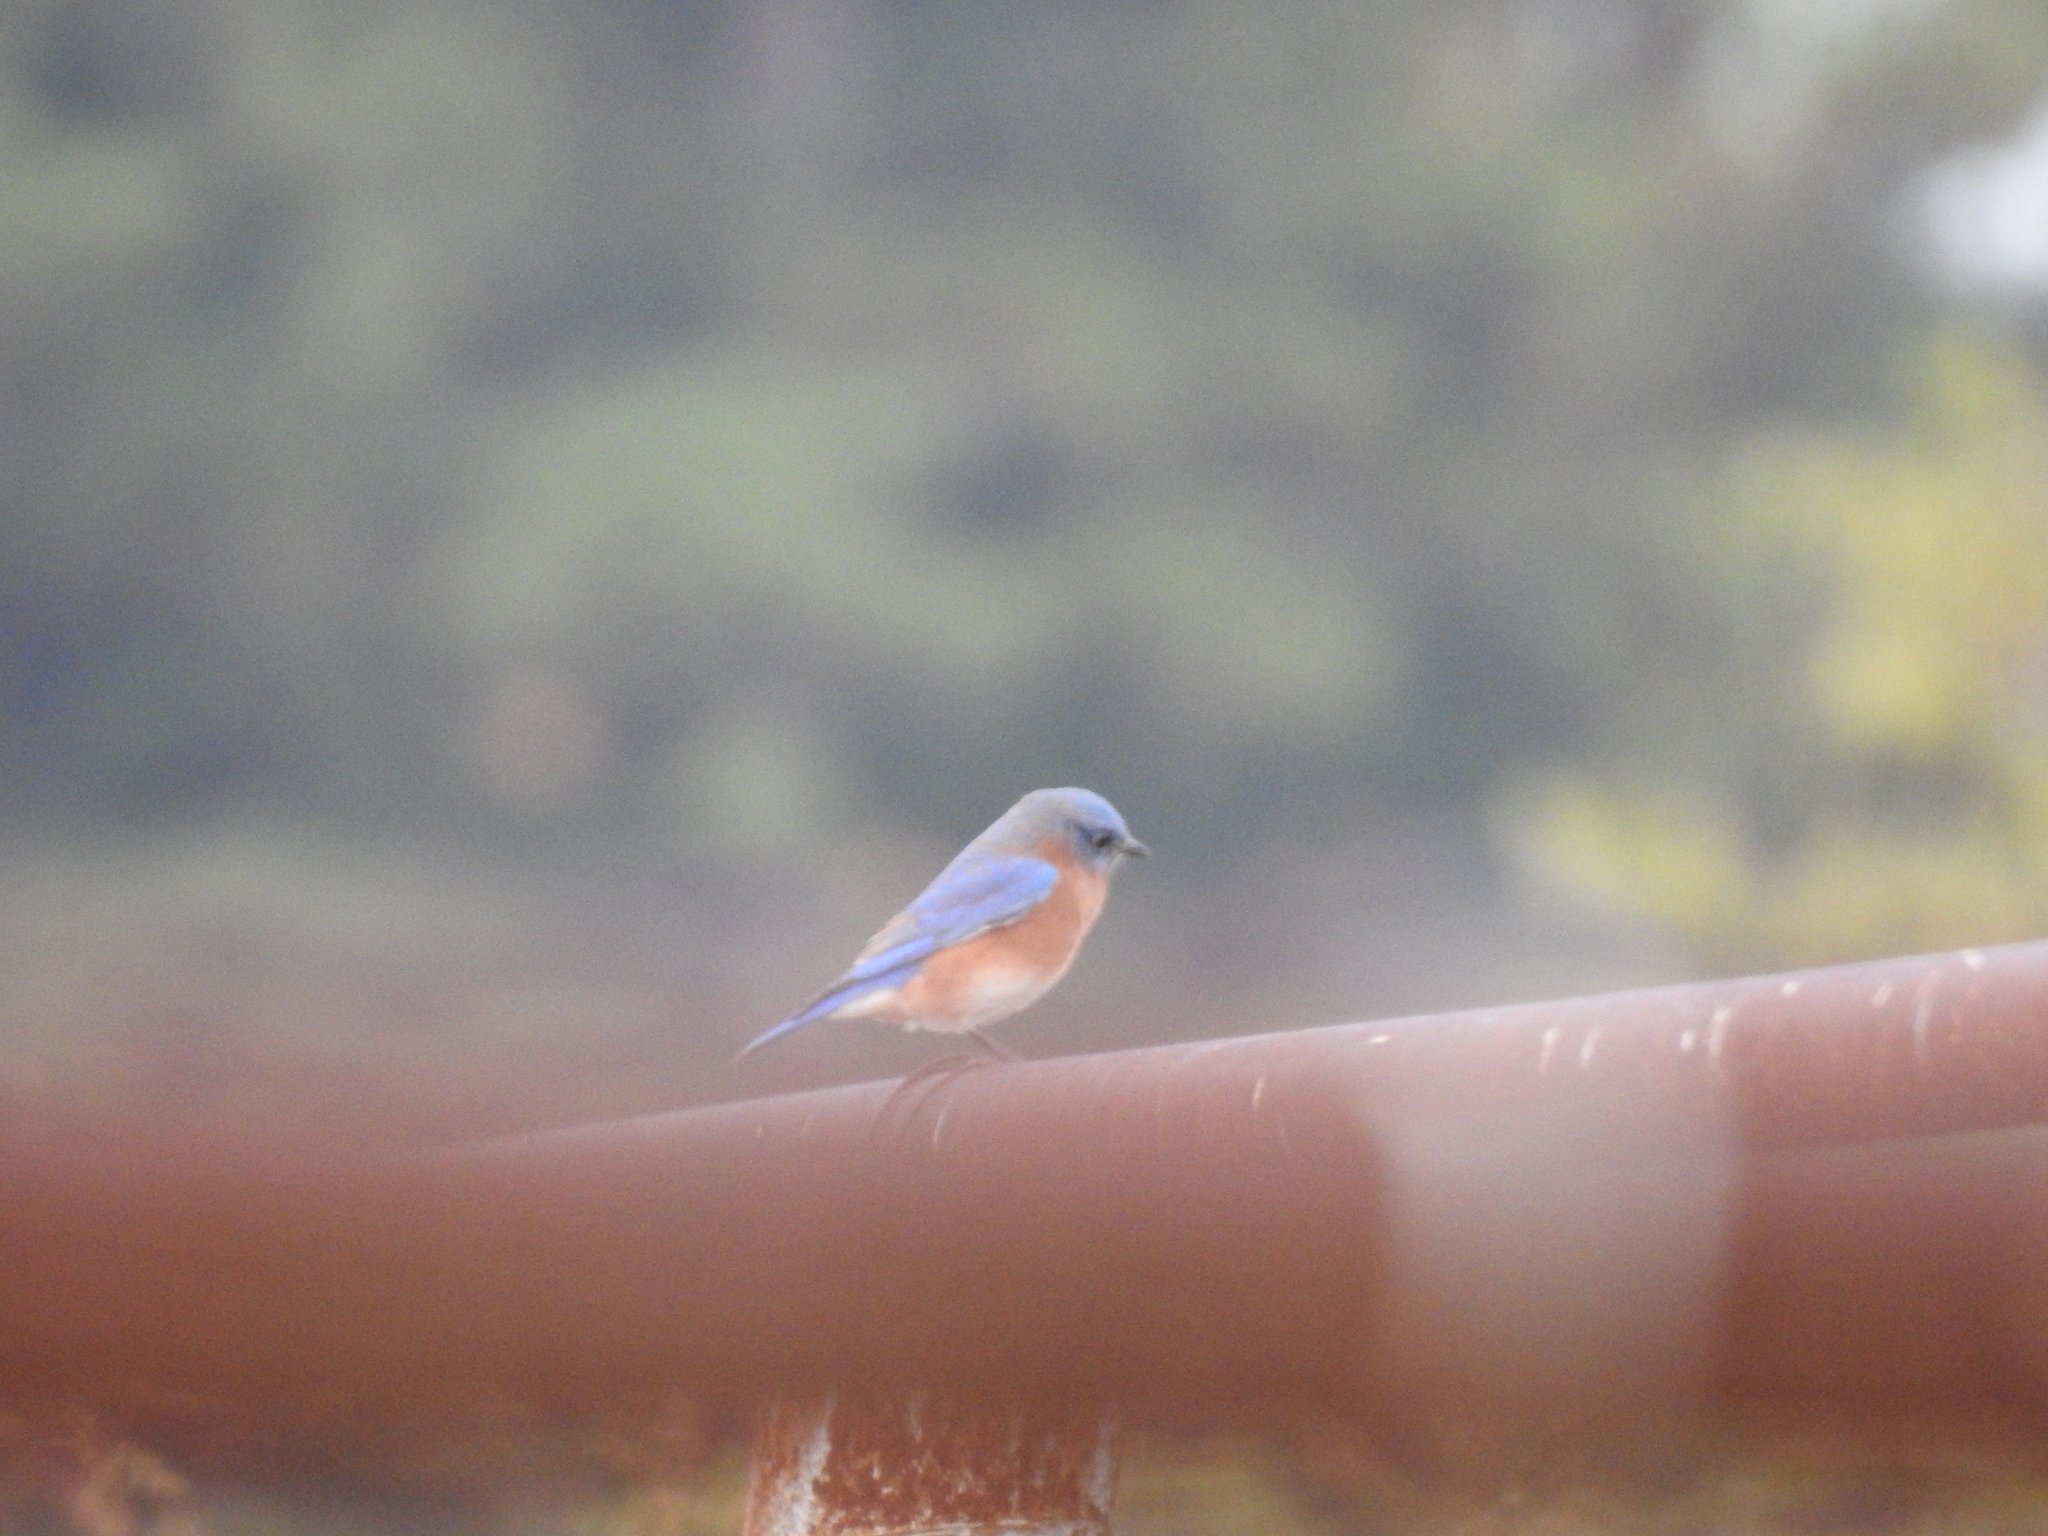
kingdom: Animalia
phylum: Chordata
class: Aves
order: Passeriformes
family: Turdidae
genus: Sialia
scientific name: Sialia sialis
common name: Eastern bluebird
